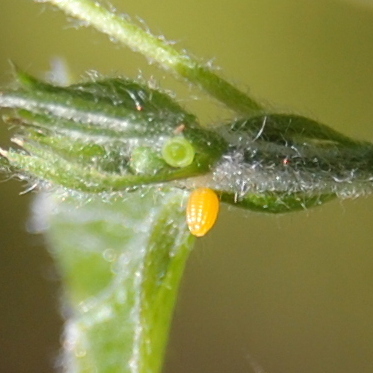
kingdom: Animalia
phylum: Arthropoda
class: Insecta
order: Lepidoptera
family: Nymphalidae
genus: Heliconius
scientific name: Heliconius erato
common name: Common patch longwing
